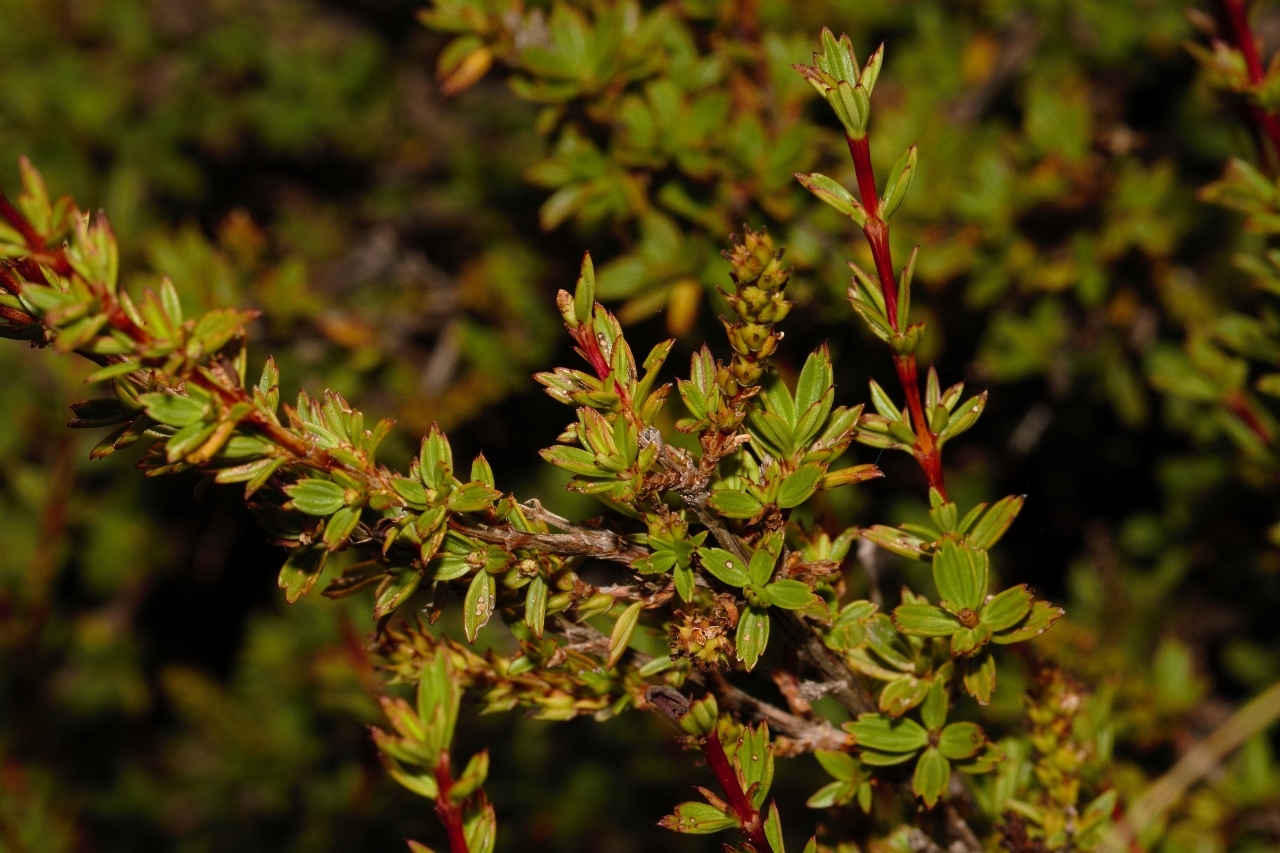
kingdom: Plantae
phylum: Tracheophyta
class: Magnoliopsida
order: Gunnerales
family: Myrothamnaceae
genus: Myrothamnus
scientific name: Myrothamnus flabellifolius
